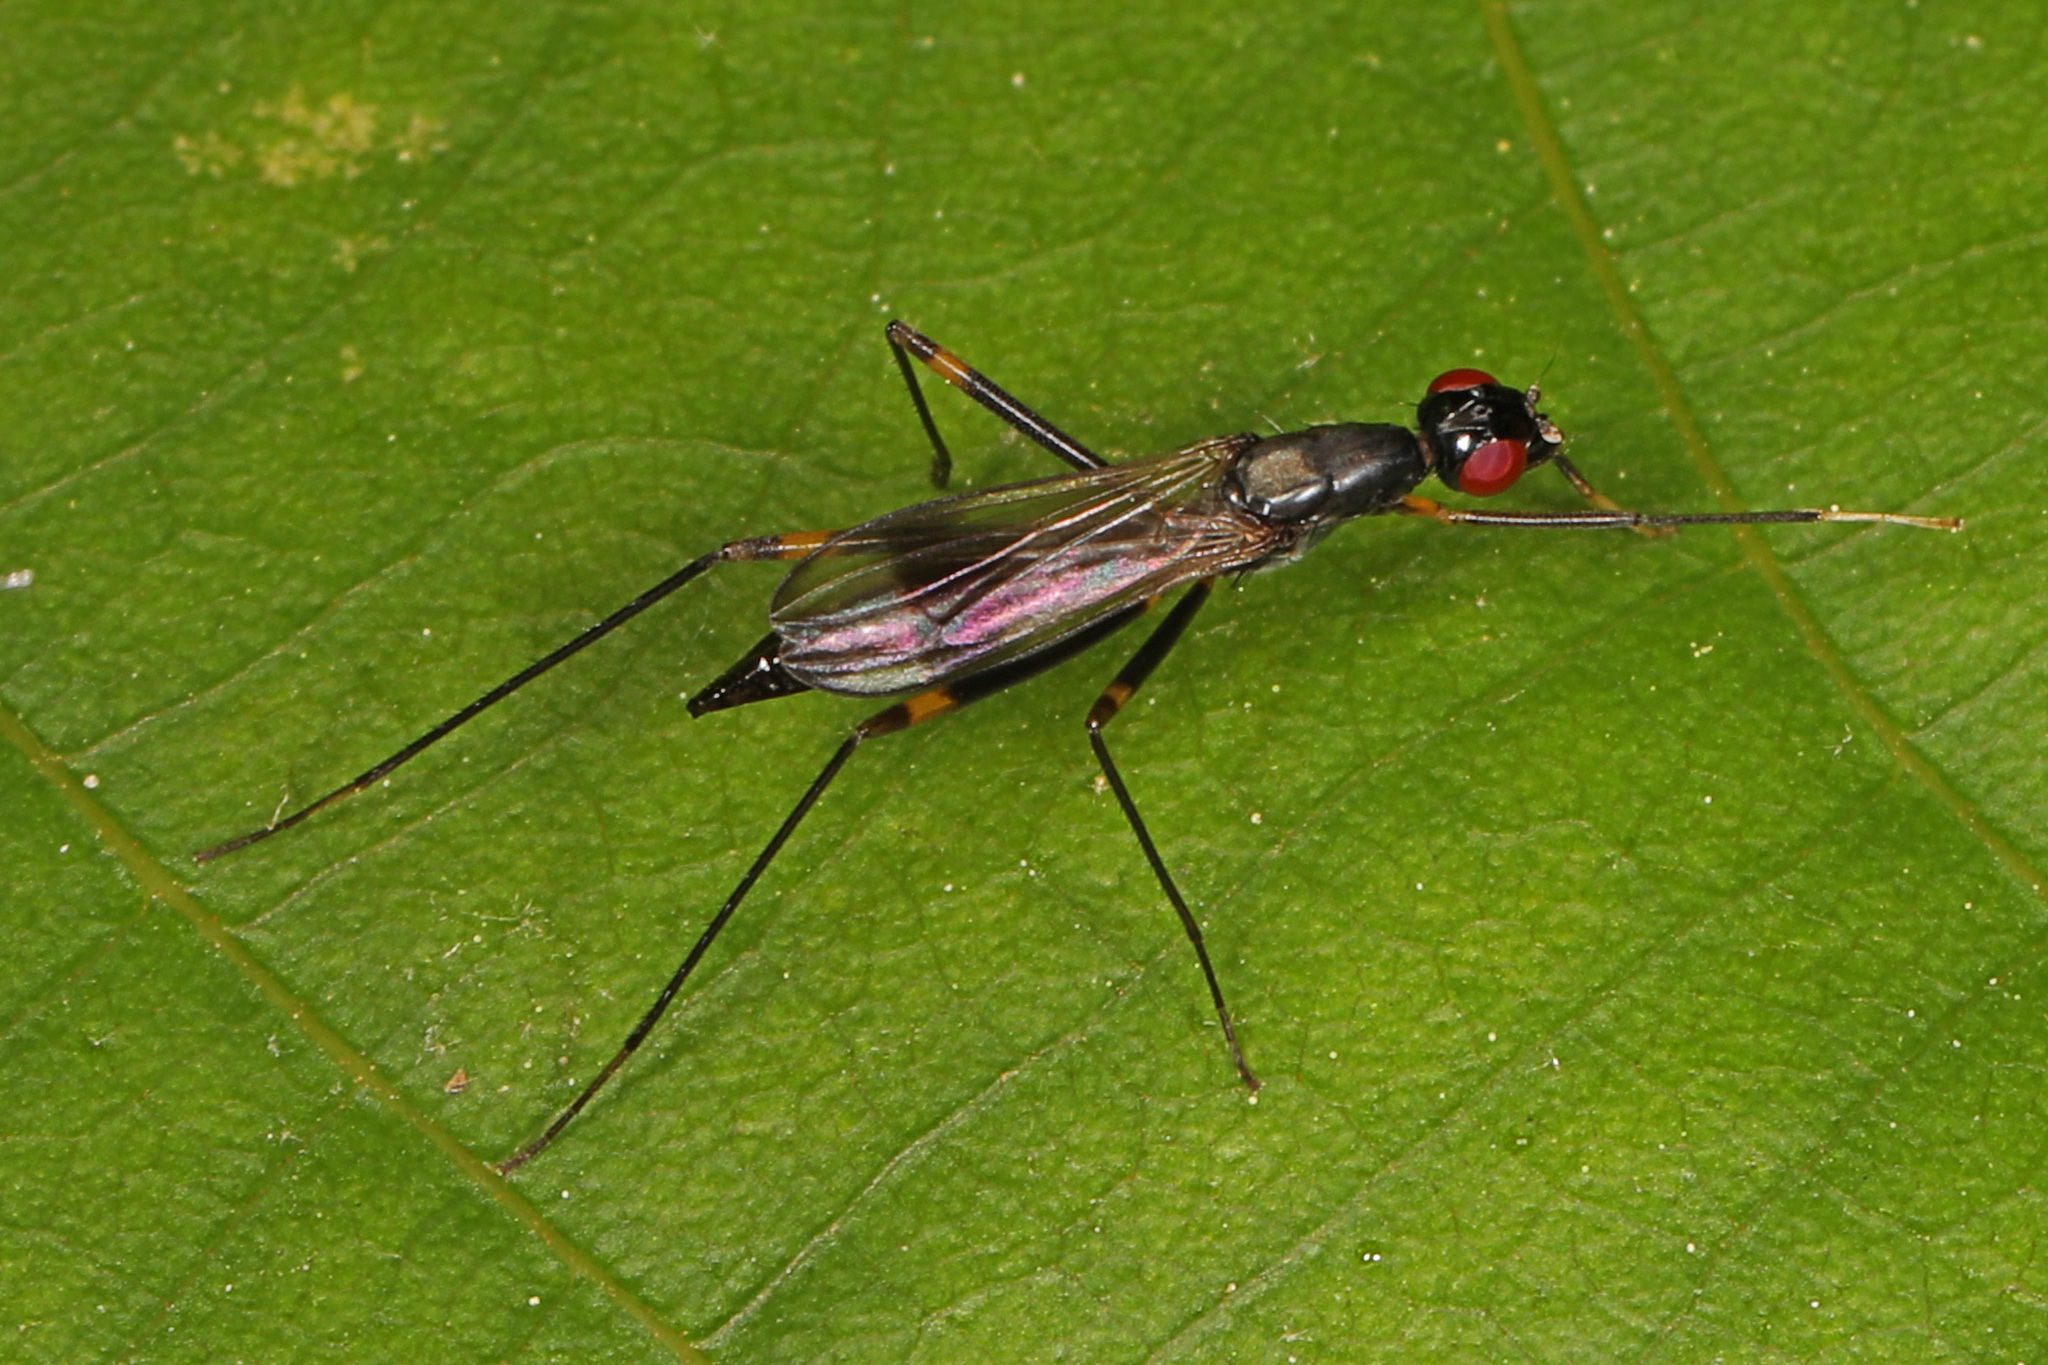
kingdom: Animalia
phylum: Arthropoda
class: Insecta
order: Diptera
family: Micropezidae
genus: Rainieria
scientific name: Rainieria antennaepes
